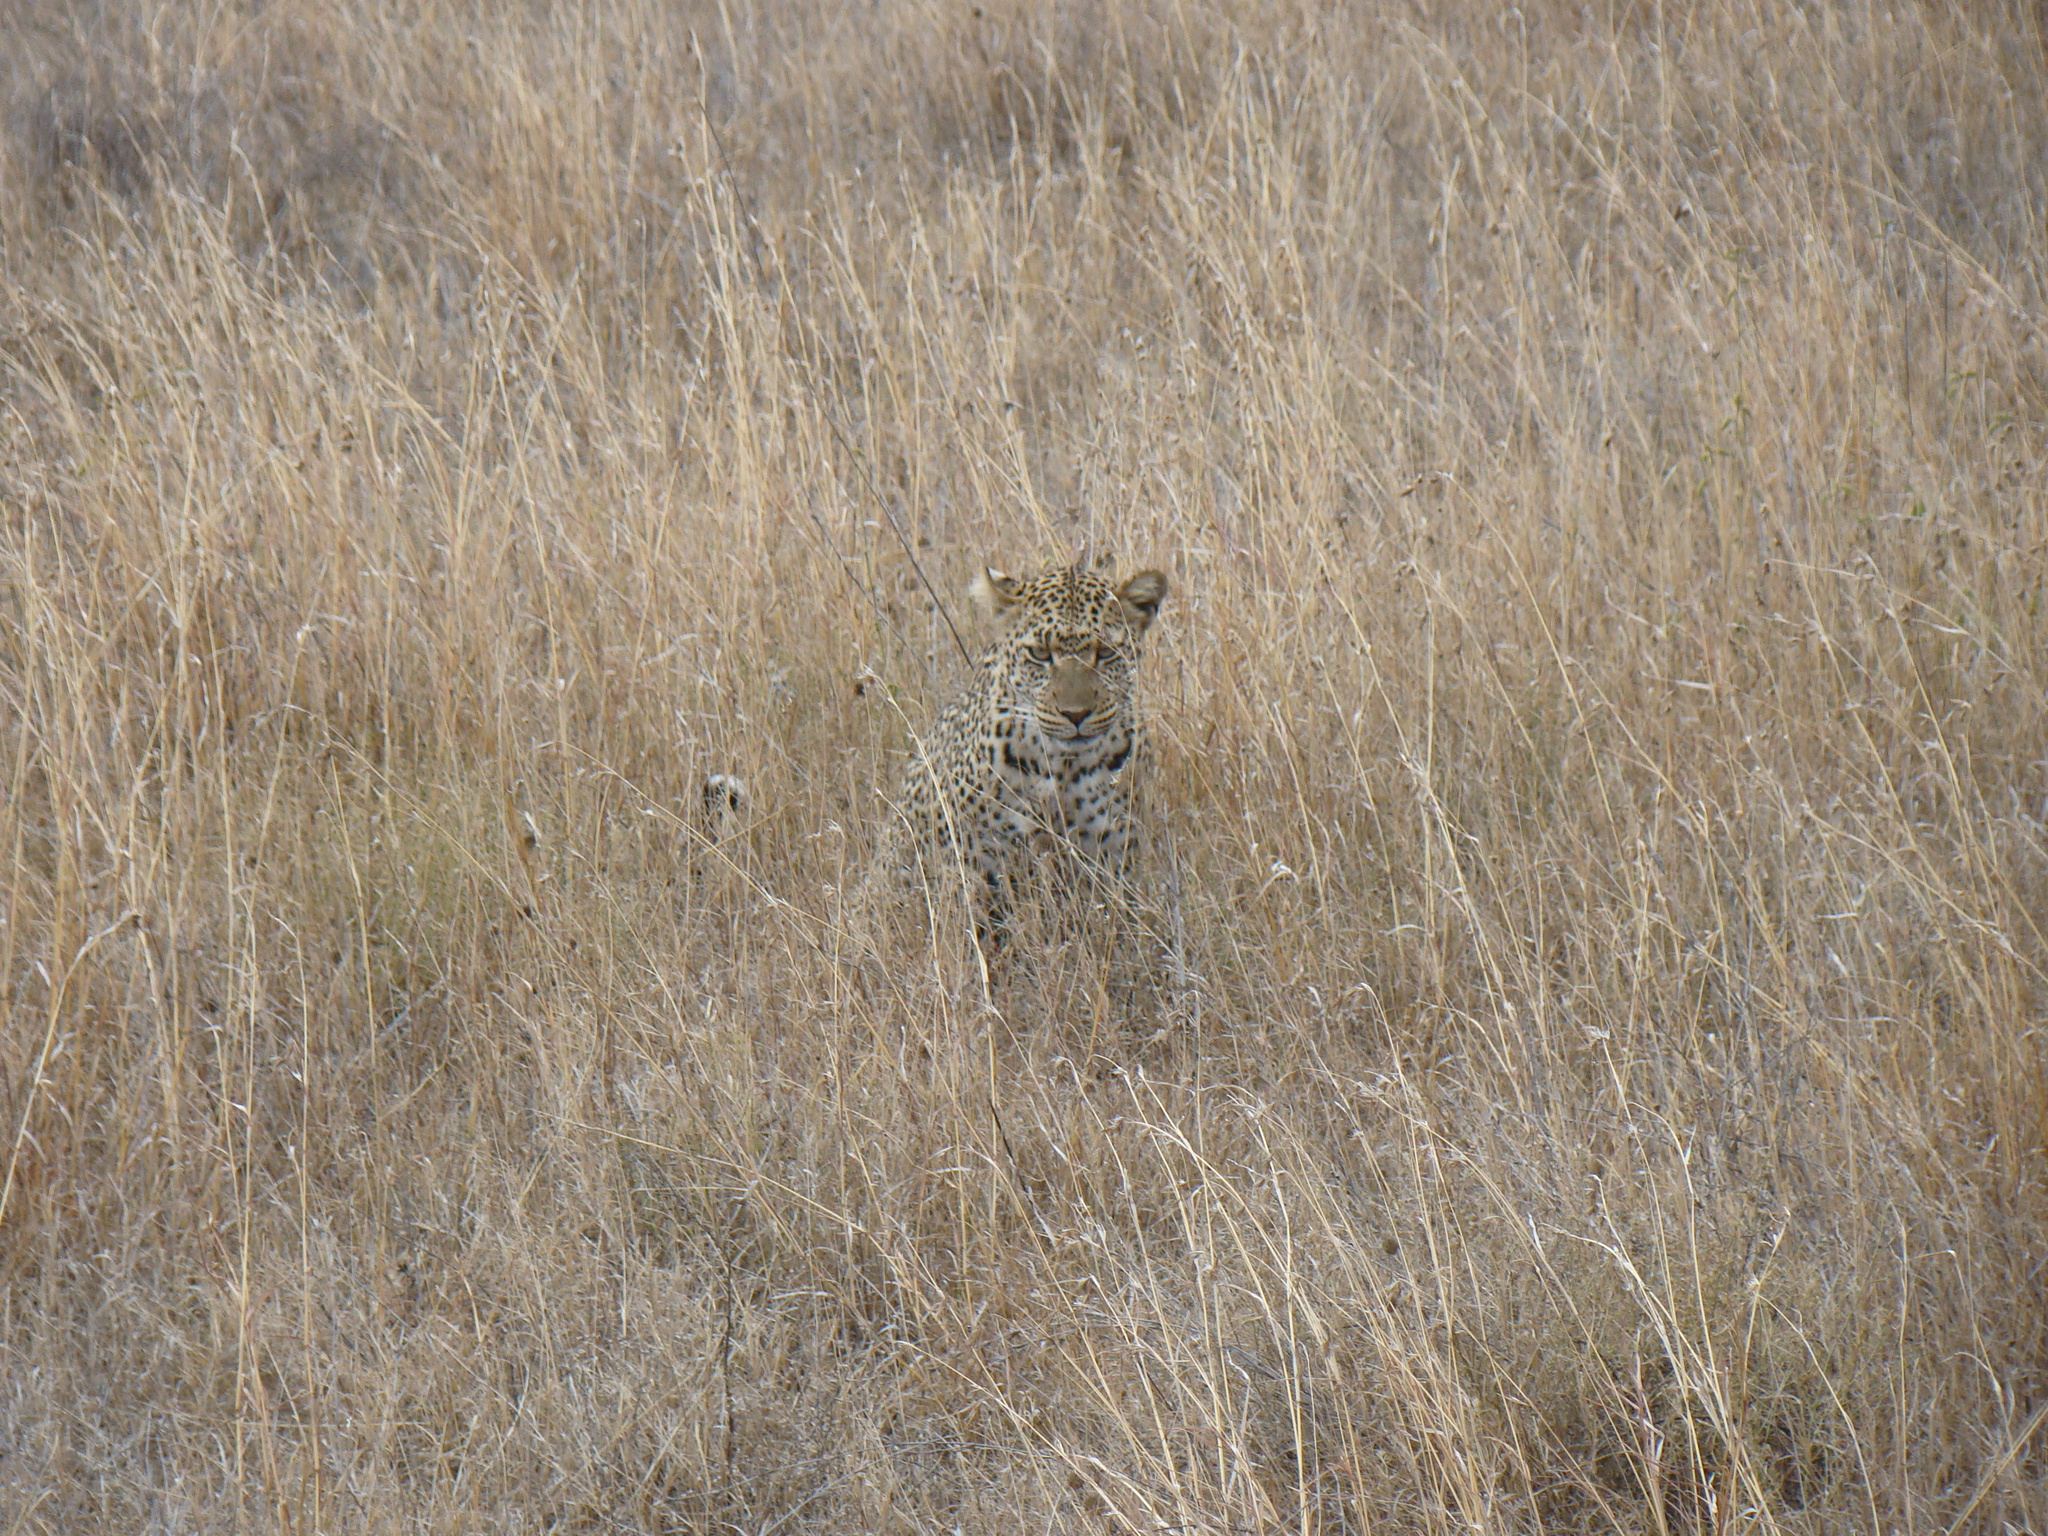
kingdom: Animalia
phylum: Chordata
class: Mammalia
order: Carnivora
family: Felidae
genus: Panthera
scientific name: Panthera pardus
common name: Leopard
